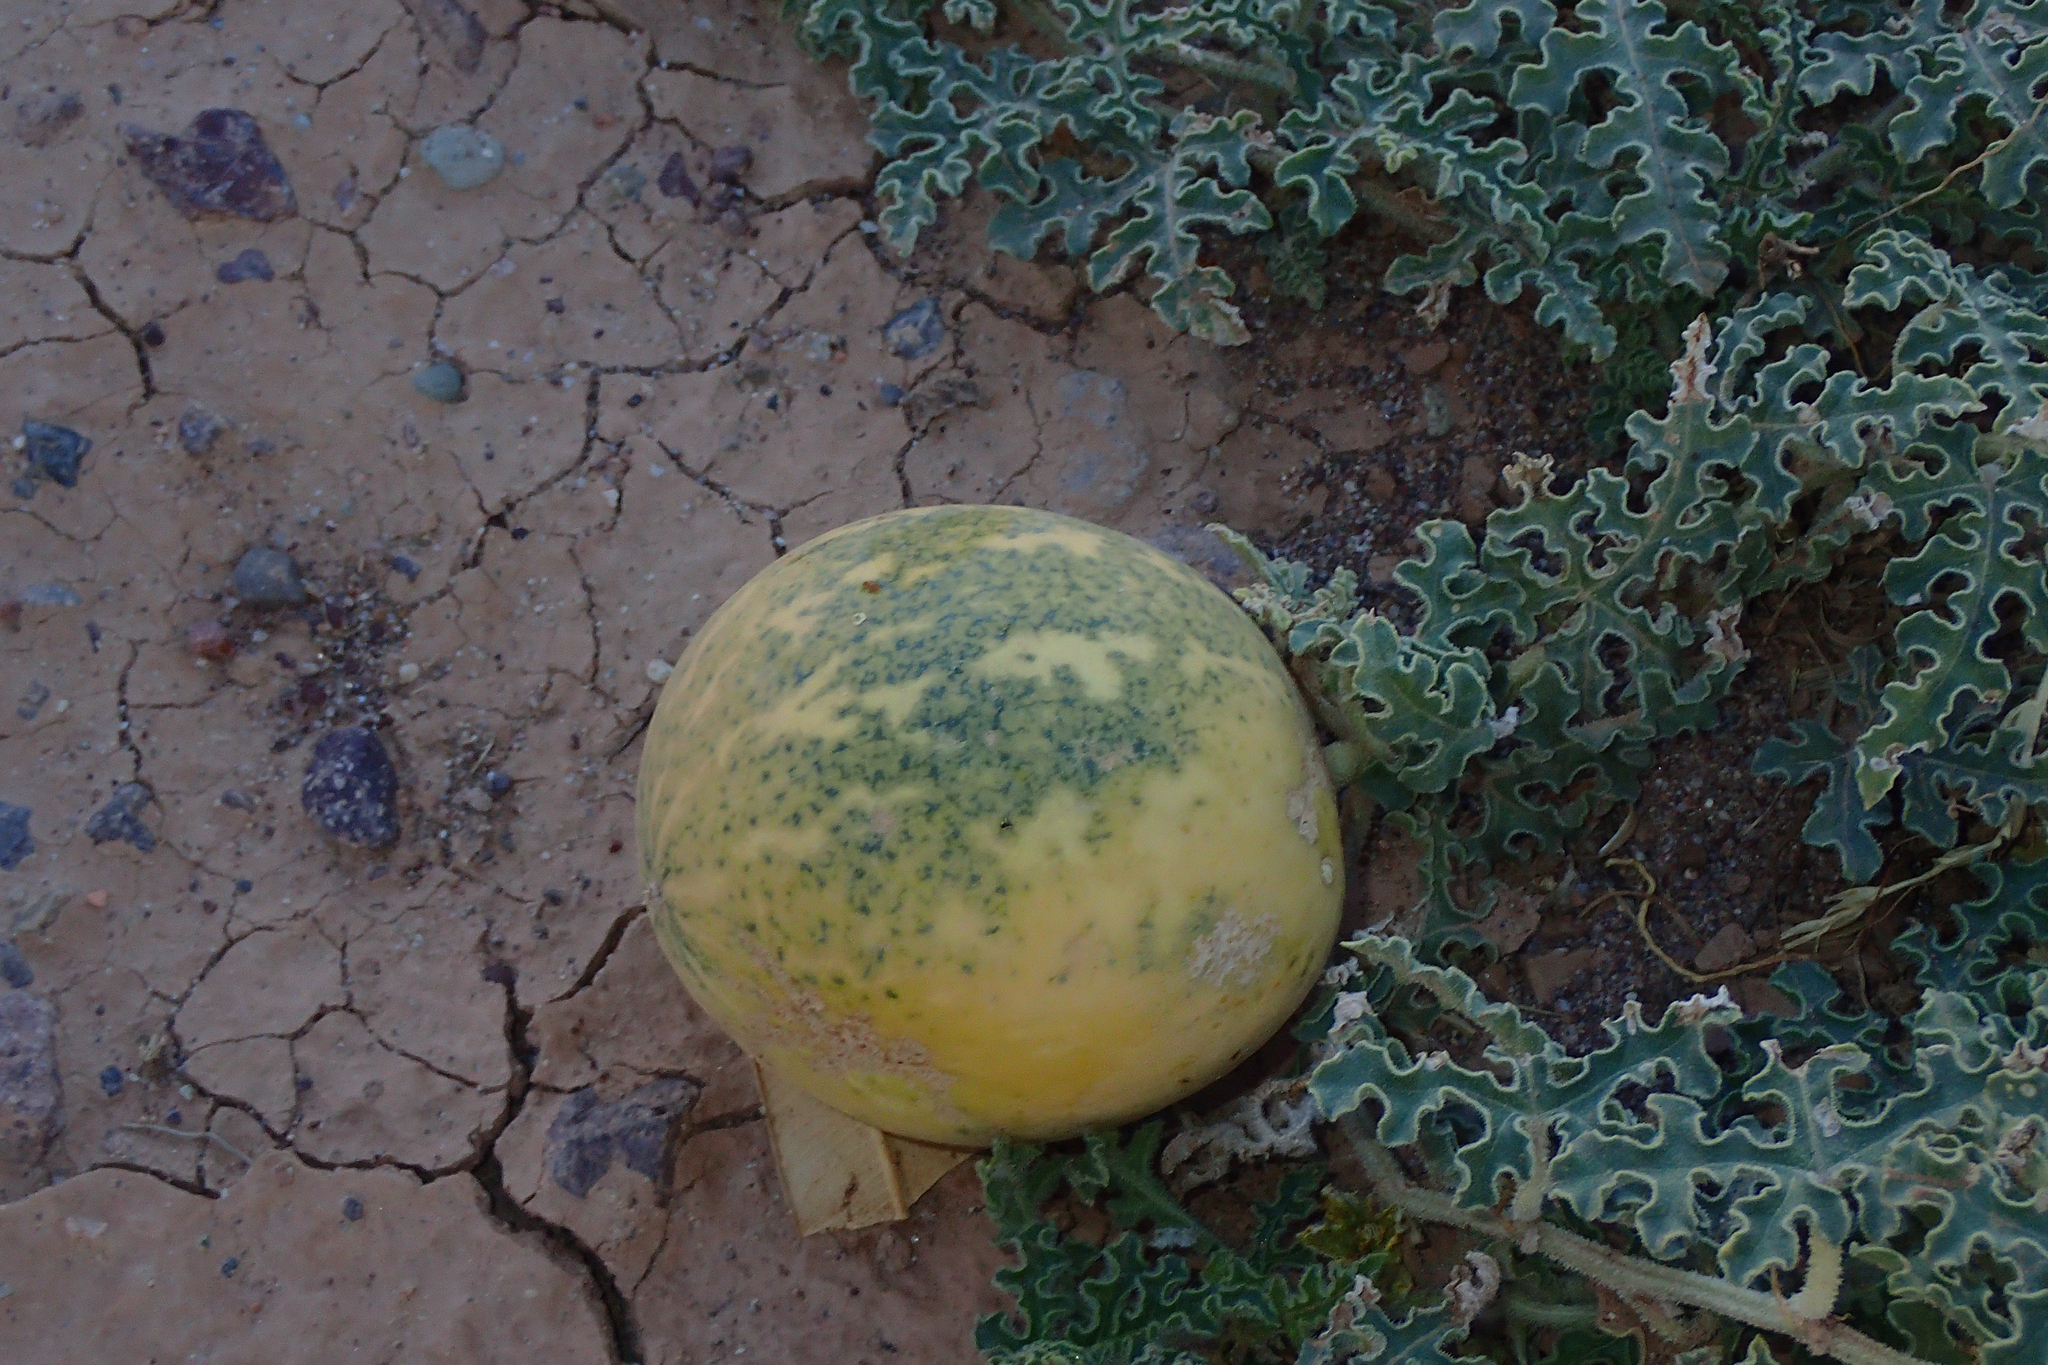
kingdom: Plantae
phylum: Tracheophyta
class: Magnoliopsida
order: Cucurbitales
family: Cucurbitaceae
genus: Citrullus
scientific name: Citrullus colocynthis
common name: Colocynth
